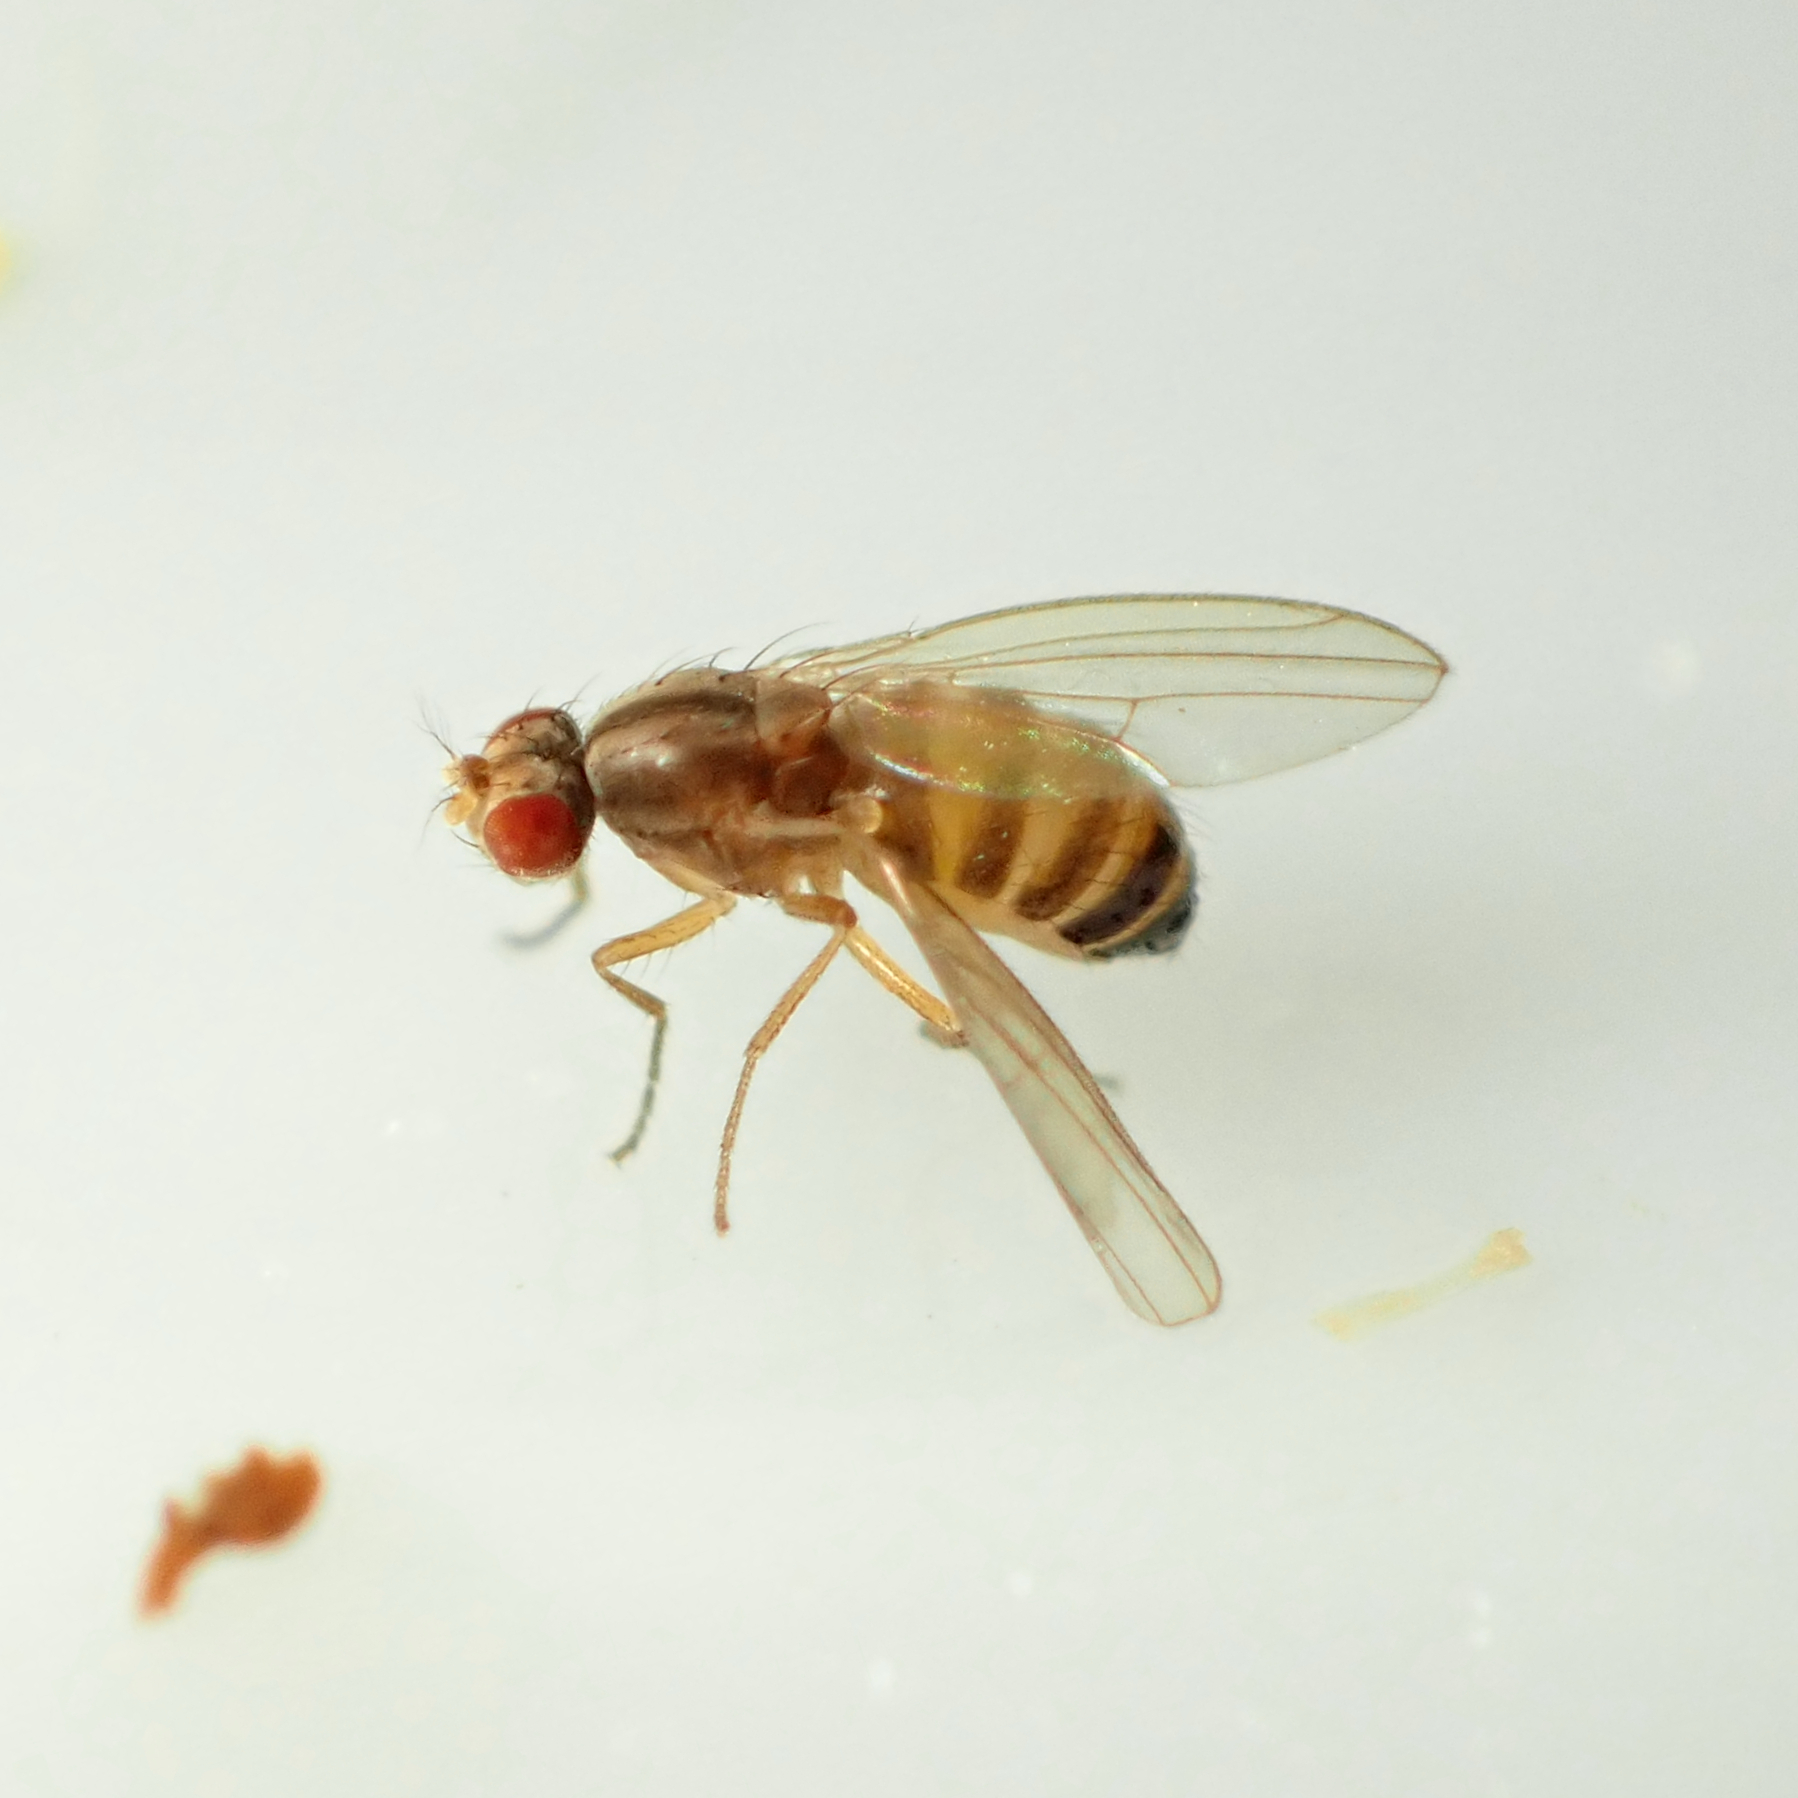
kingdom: Animalia
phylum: Arthropoda
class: Insecta
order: Diptera
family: Drosophilidae
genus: Scaptomyza
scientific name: Scaptomyza pallida
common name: Pomace fly
